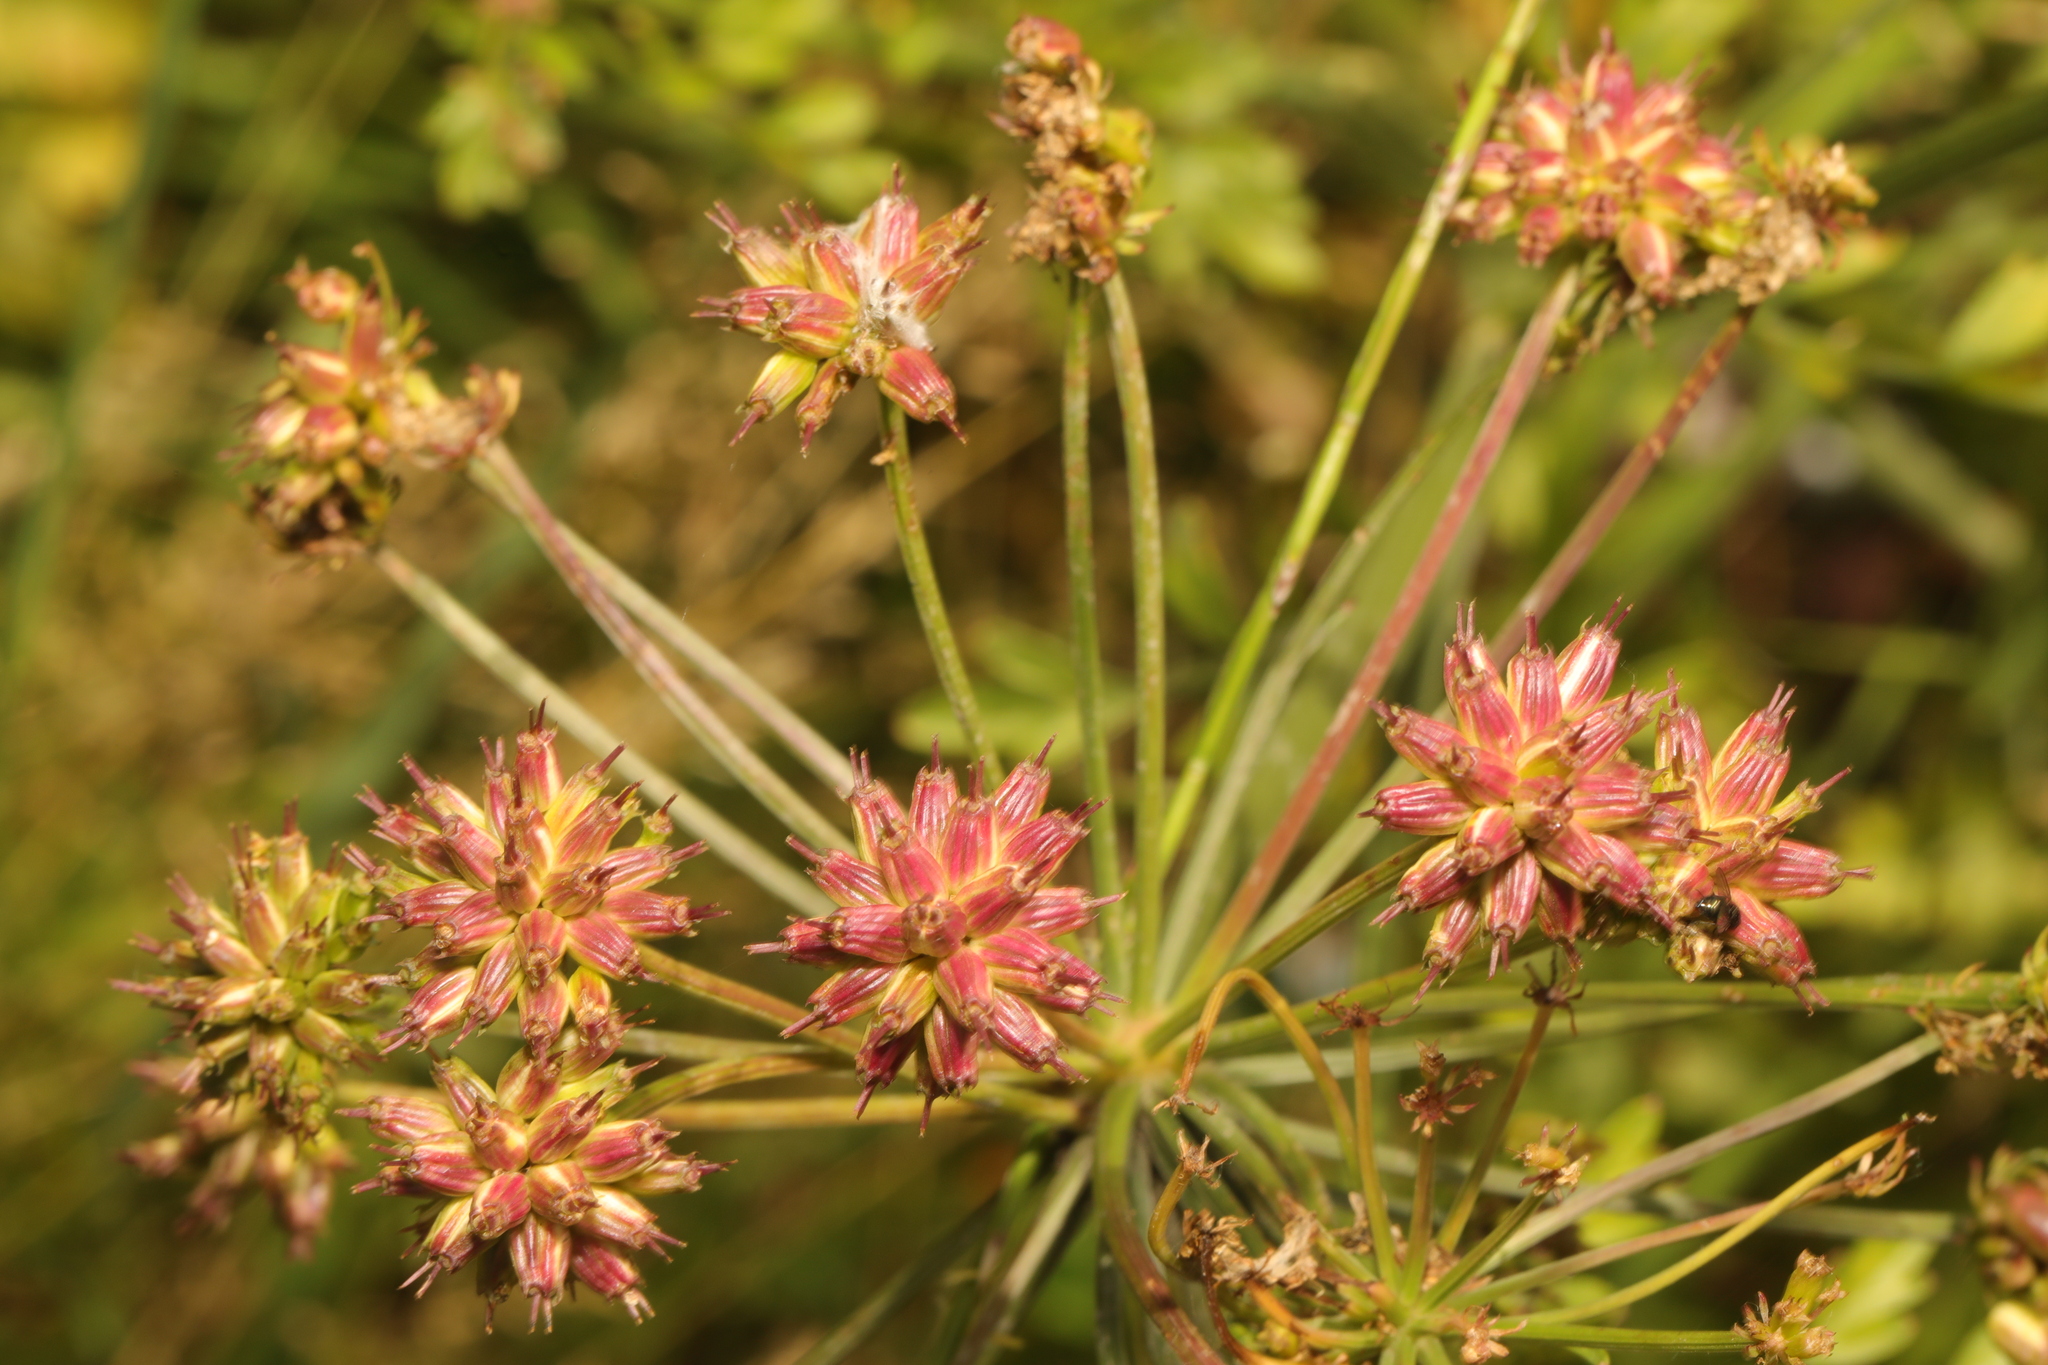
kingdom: Plantae
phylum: Tracheophyta
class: Magnoliopsida
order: Apiales
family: Apiaceae
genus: Oenanthe
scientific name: Oenanthe crocata
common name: Hemlock water-dropwort
